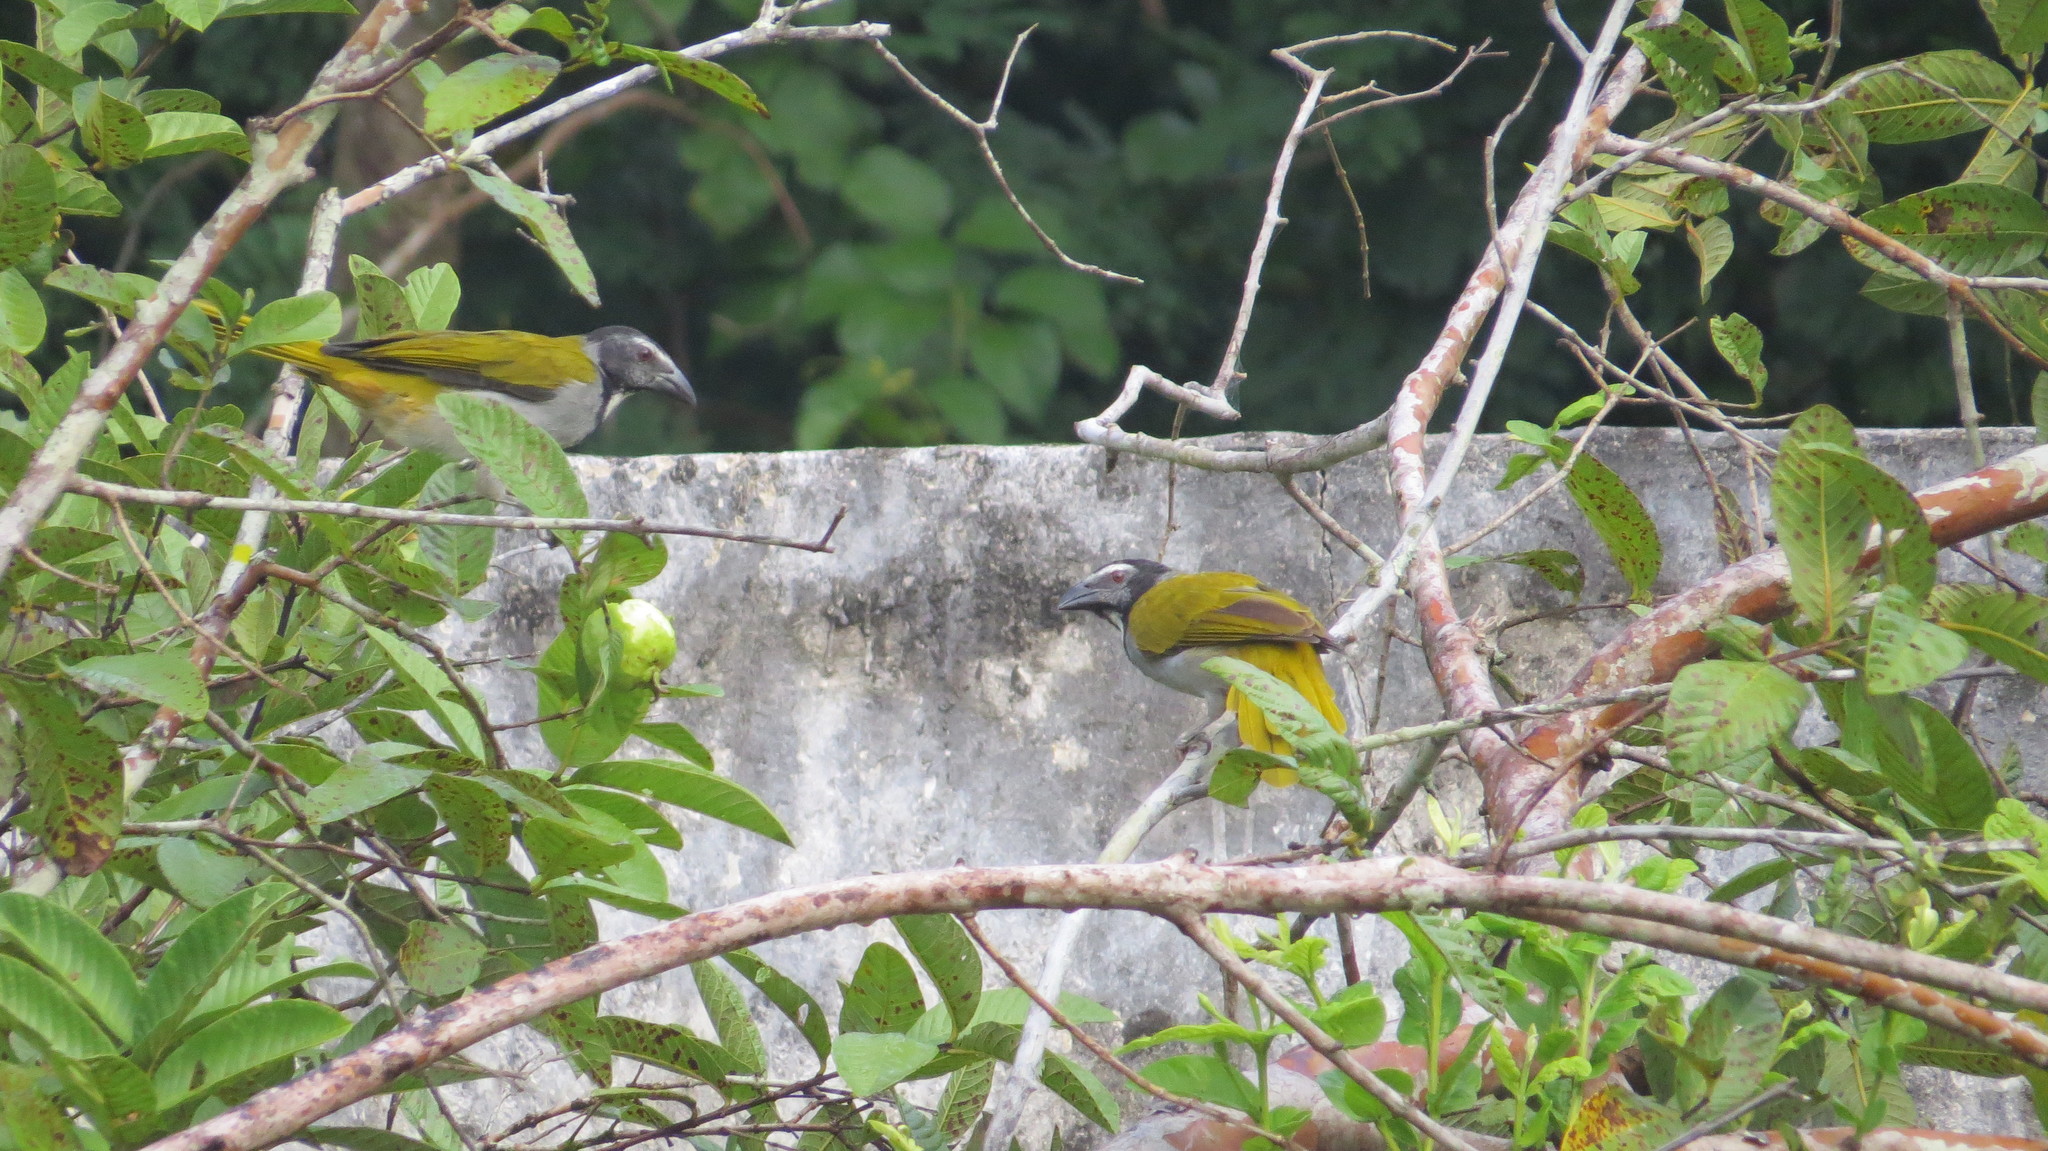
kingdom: Animalia
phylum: Chordata
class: Aves
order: Passeriformes
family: Thraupidae
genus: Saltator
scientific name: Saltator atriceps
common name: Black-headed saltator
